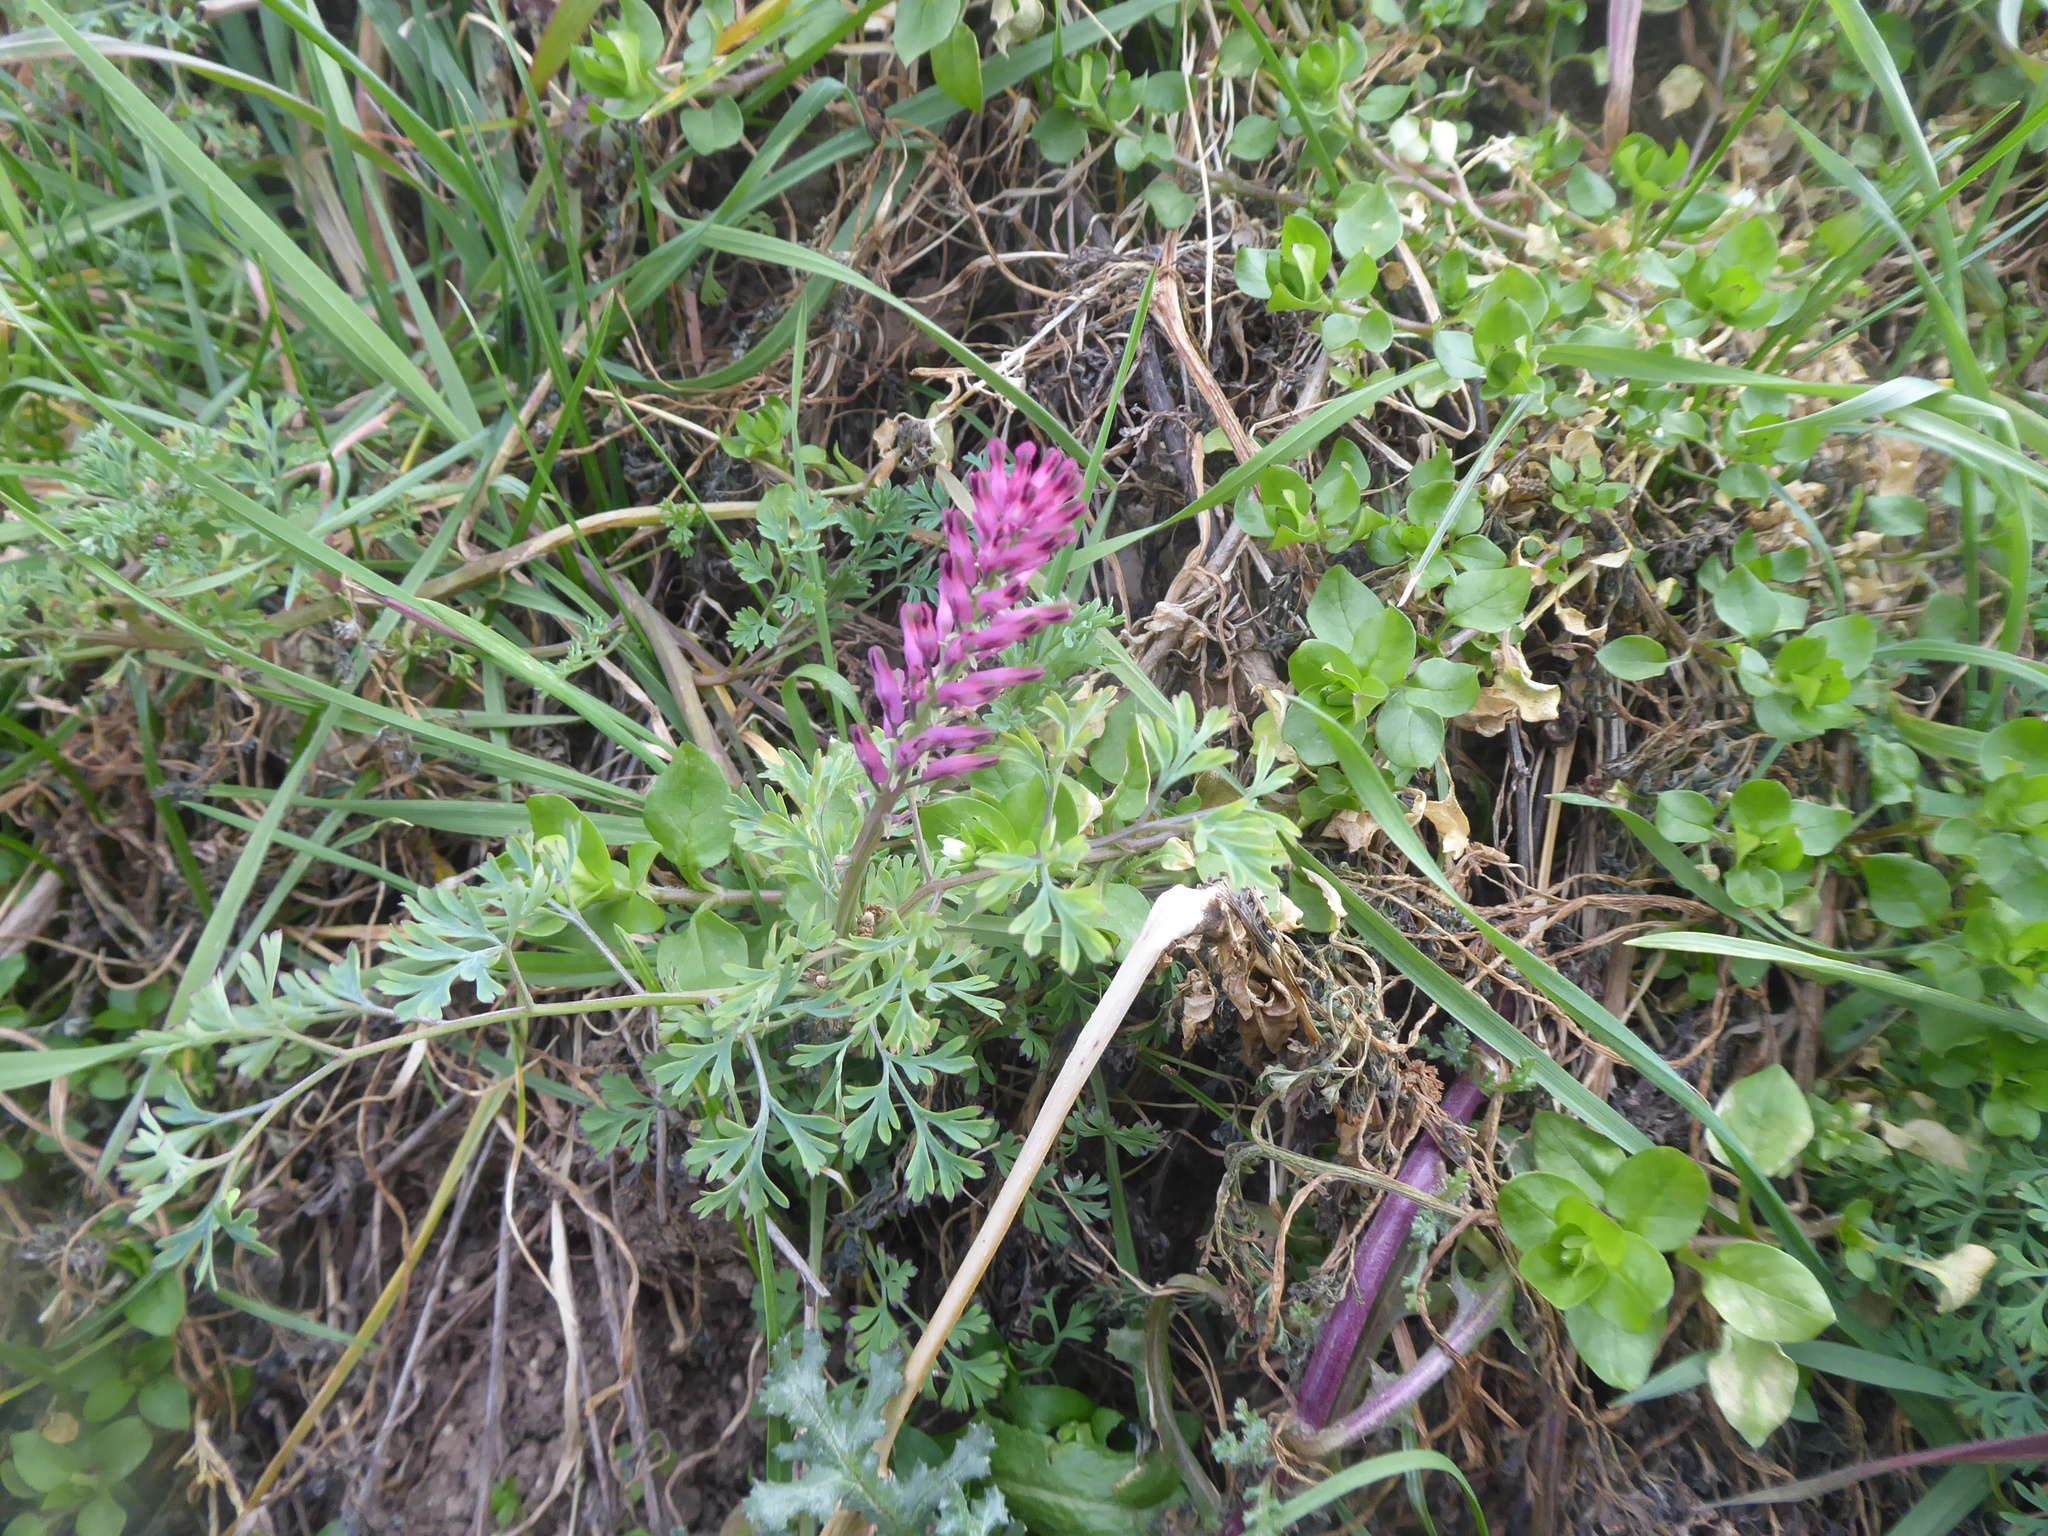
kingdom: Plantae
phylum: Tracheophyta
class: Magnoliopsida
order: Ranunculales
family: Papaveraceae
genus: Fumaria
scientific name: Fumaria officinalis
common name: Common fumitory
